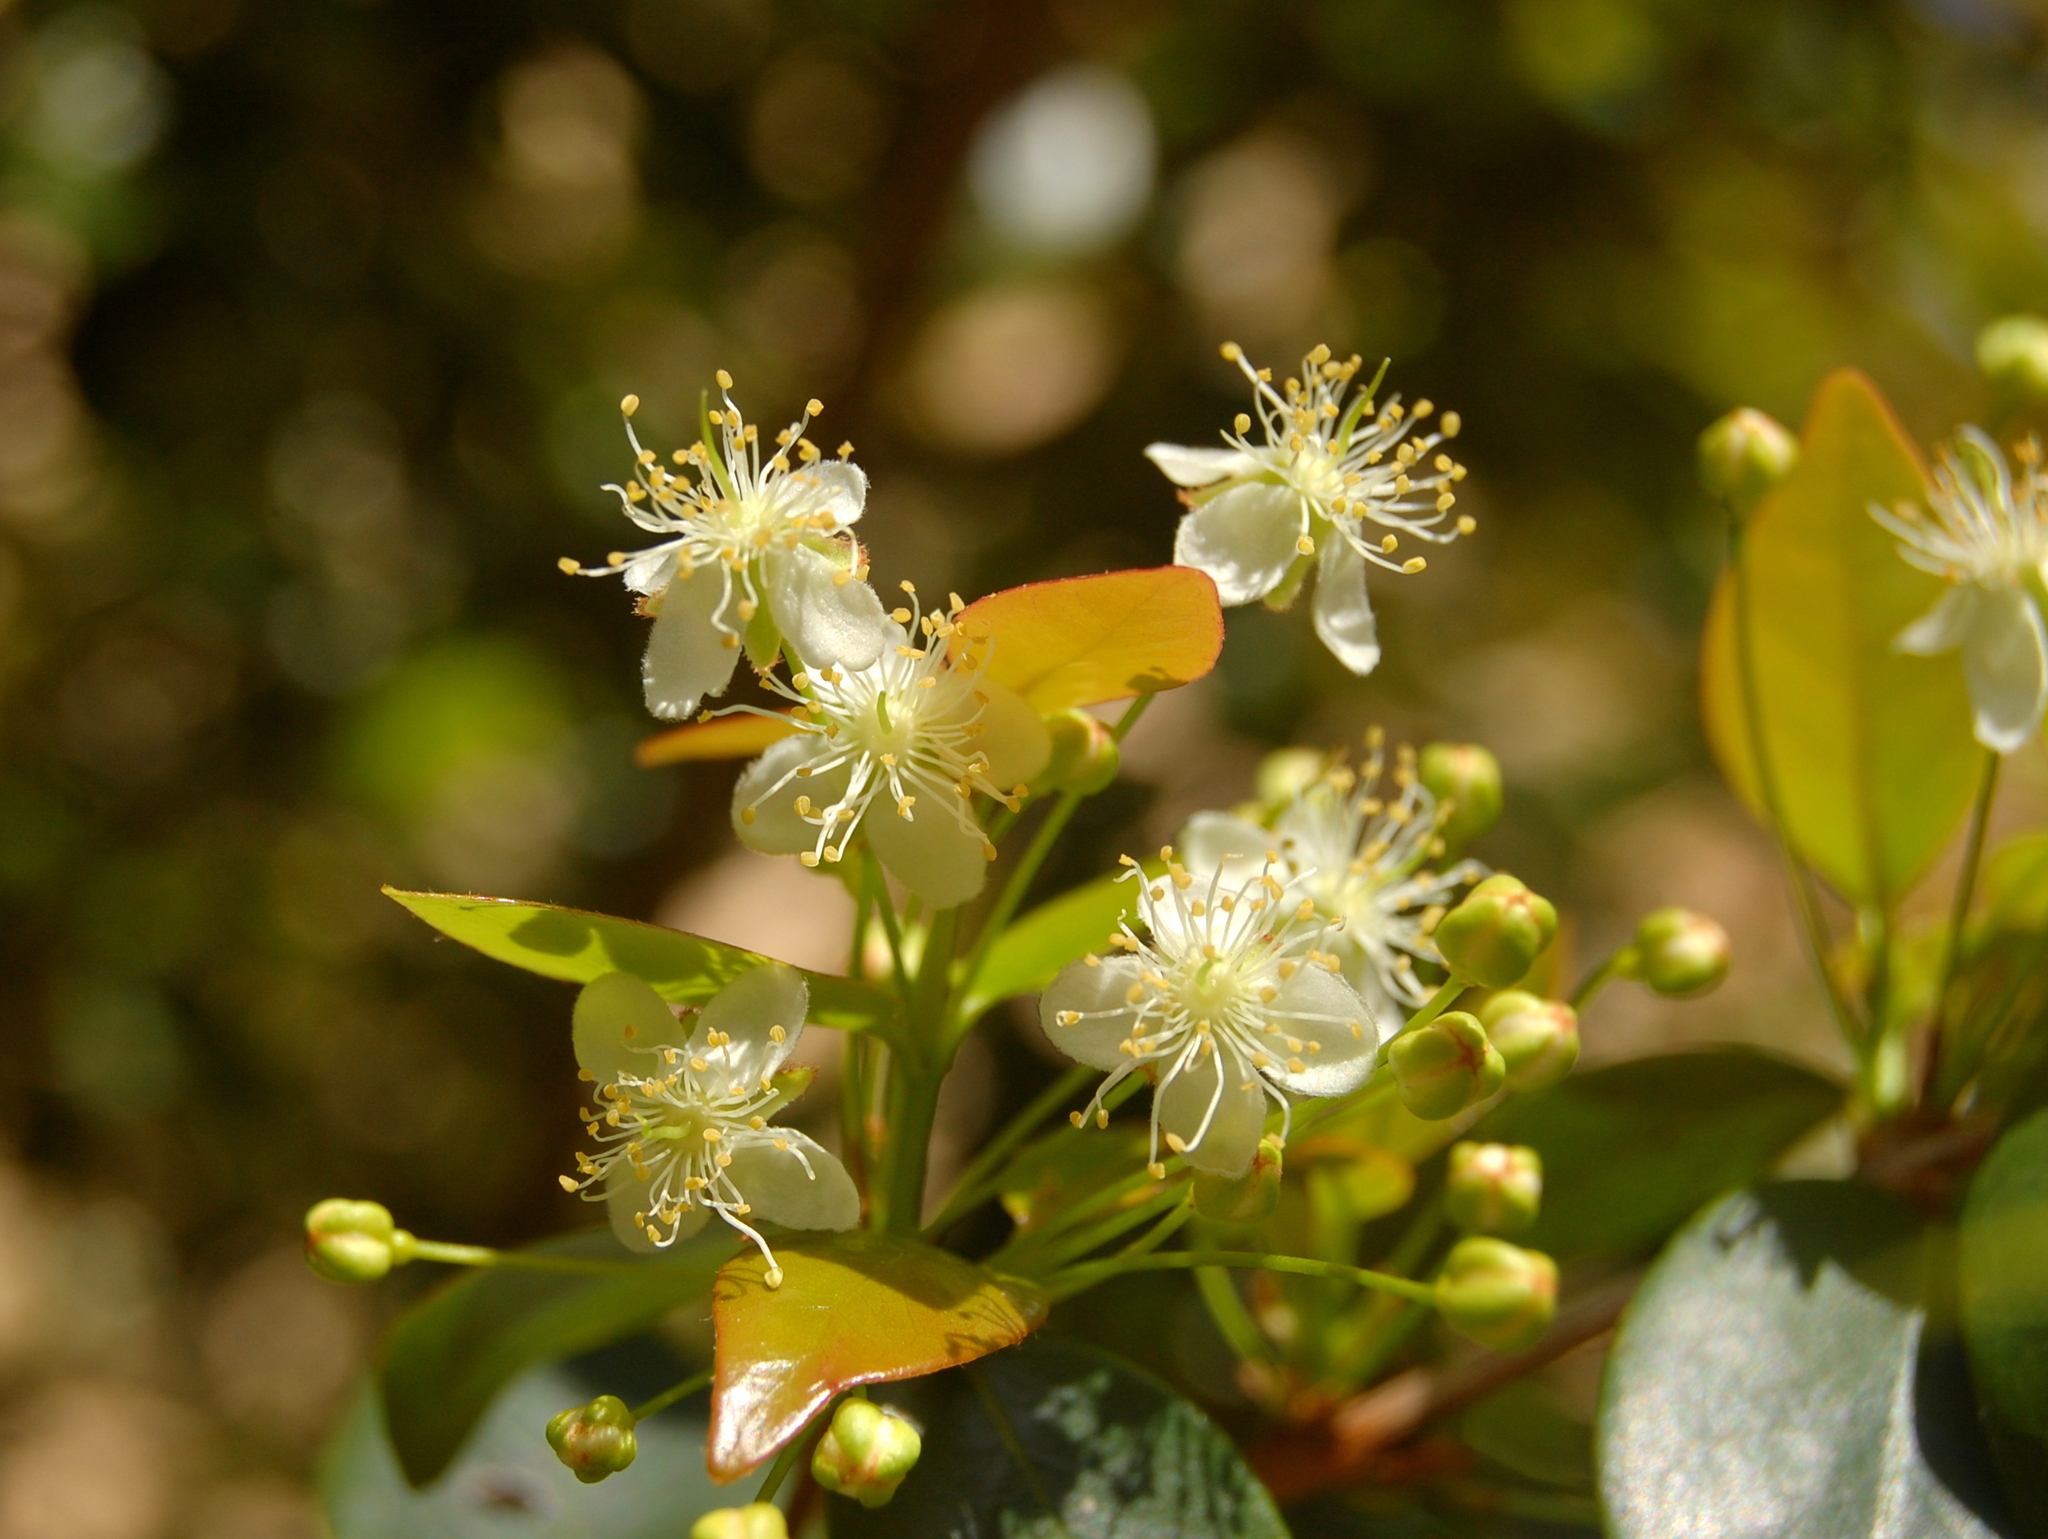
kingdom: Plantae
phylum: Tracheophyta
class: Magnoliopsida
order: Myrtales
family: Myrtaceae
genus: Eugenia
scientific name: Eugenia uniflora
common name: Surinam cherry
